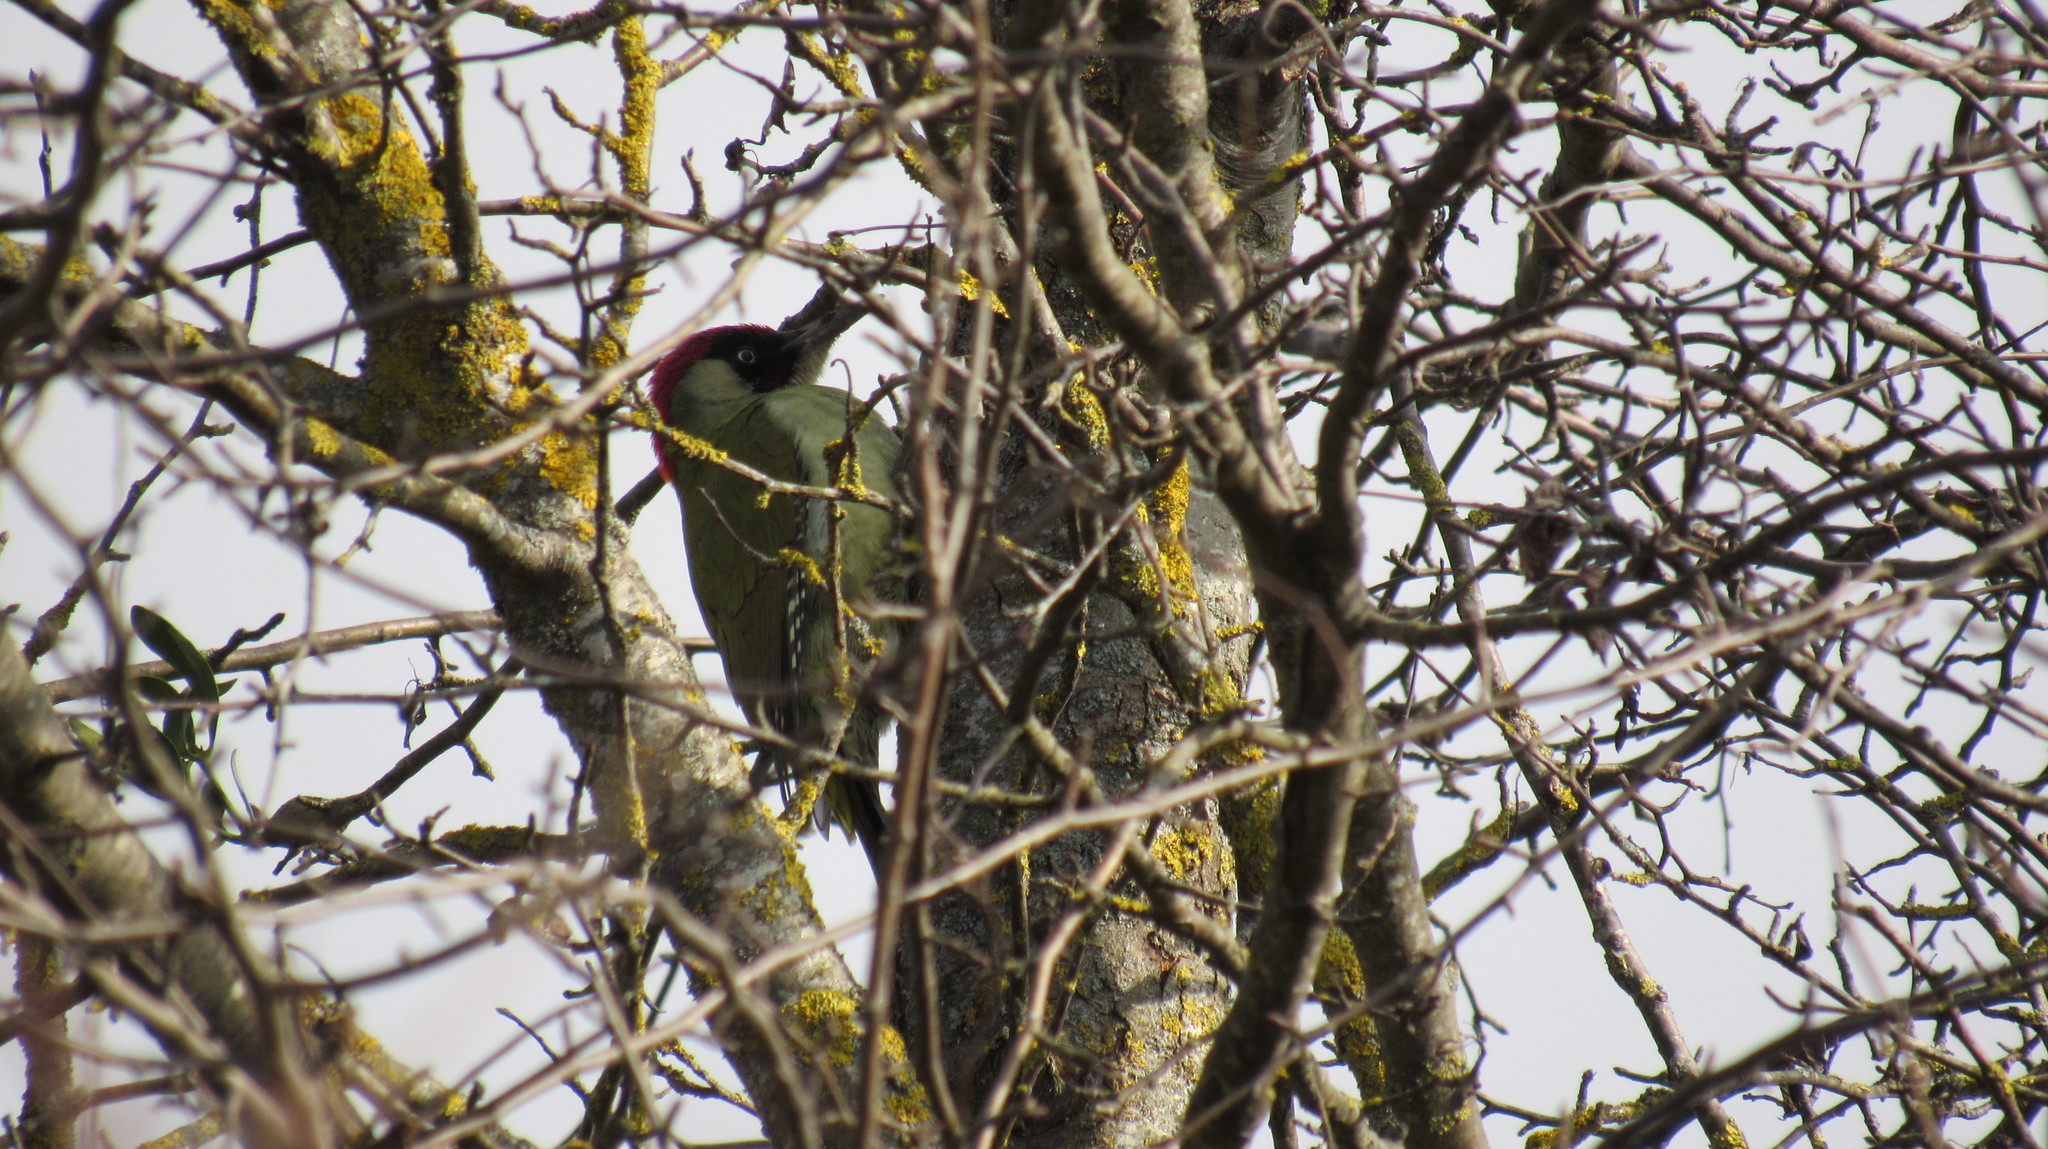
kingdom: Animalia
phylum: Chordata
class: Aves
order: Piciformes
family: Picidae
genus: Picus
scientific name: Picus viridis
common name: European green woodpecker
